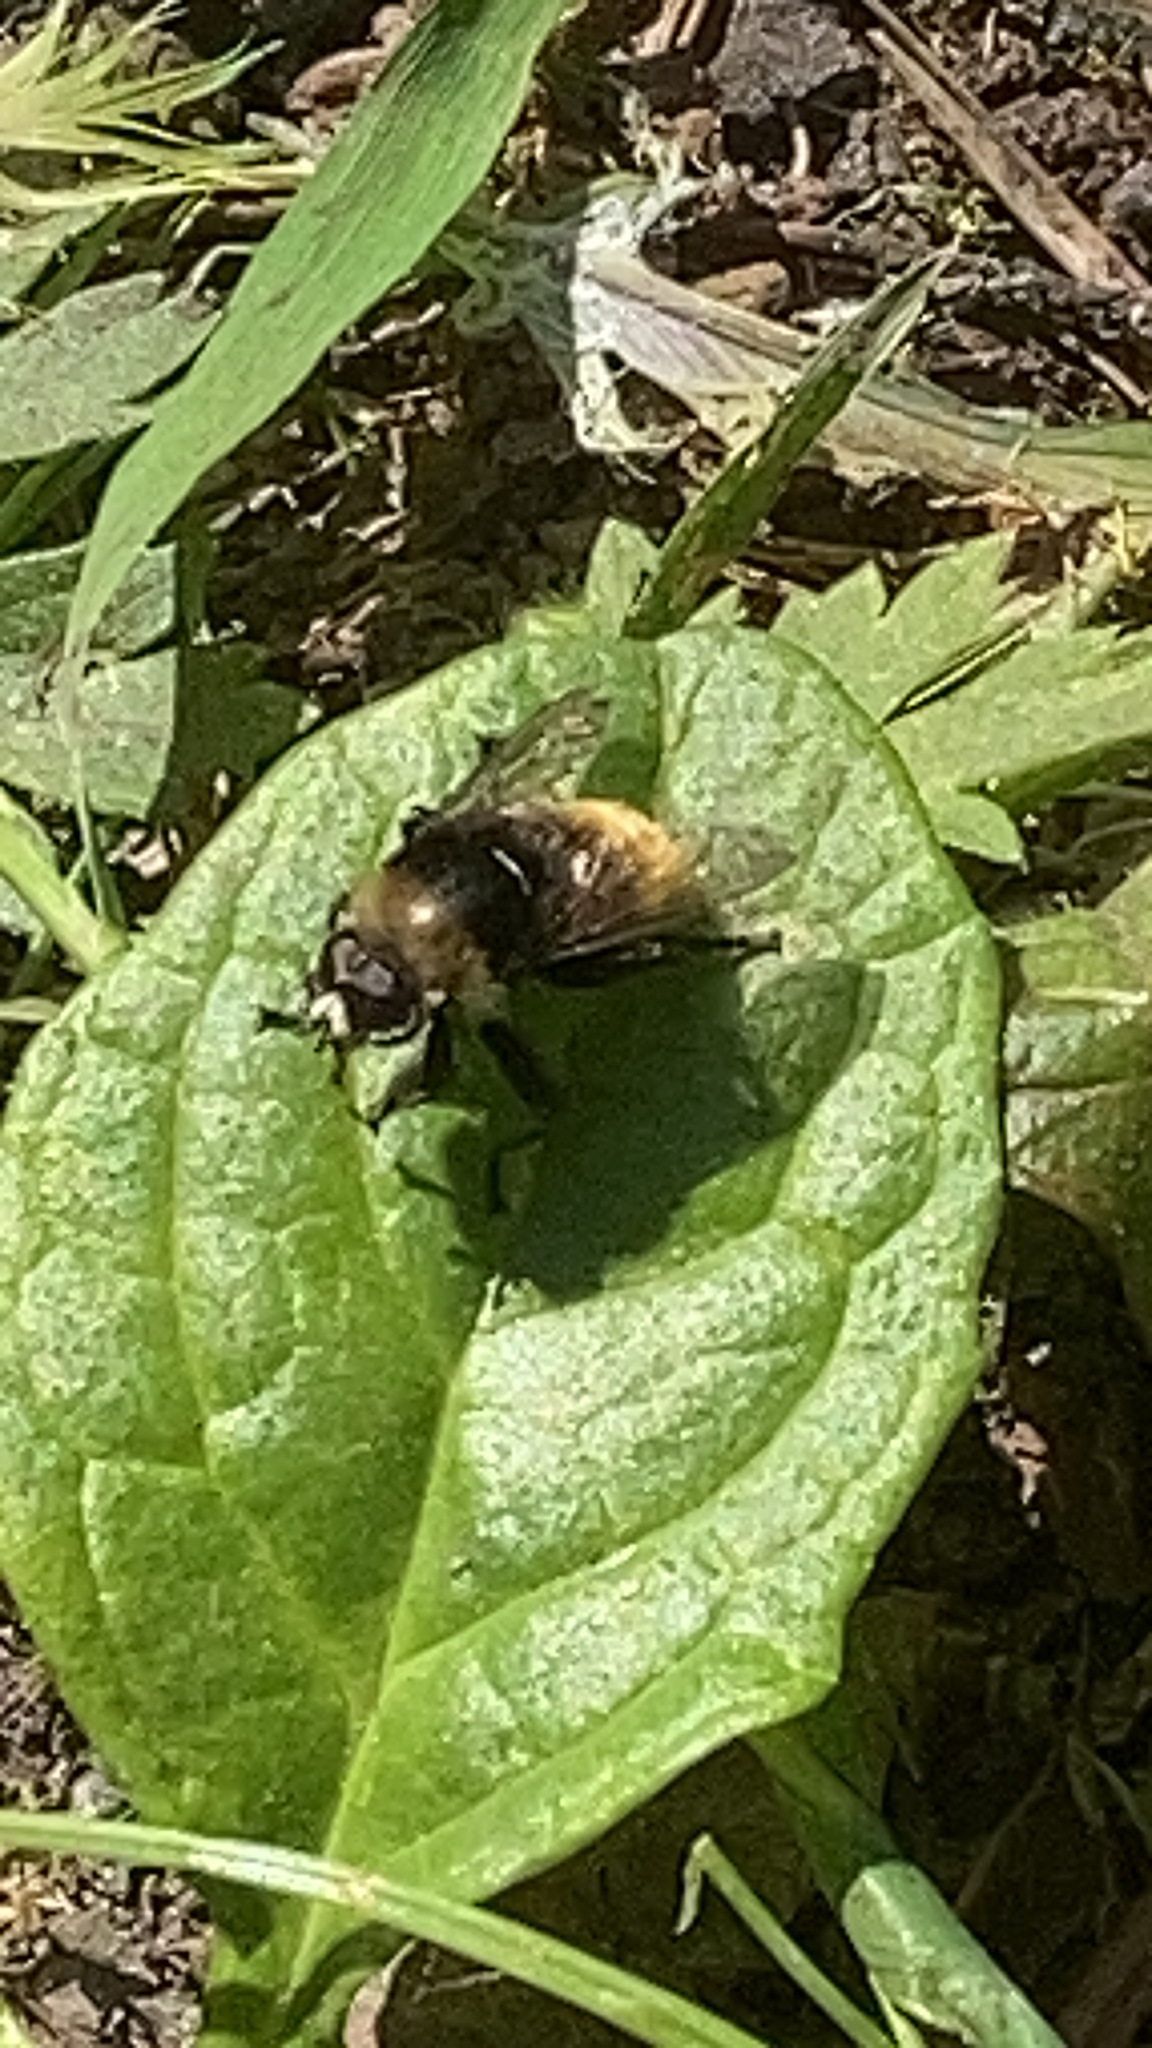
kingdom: Animalia
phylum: Arthropoda
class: Insecta
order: Diptera
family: Syrphidae
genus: Merodon
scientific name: Merodon equestris
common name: Greater bulb-fly
